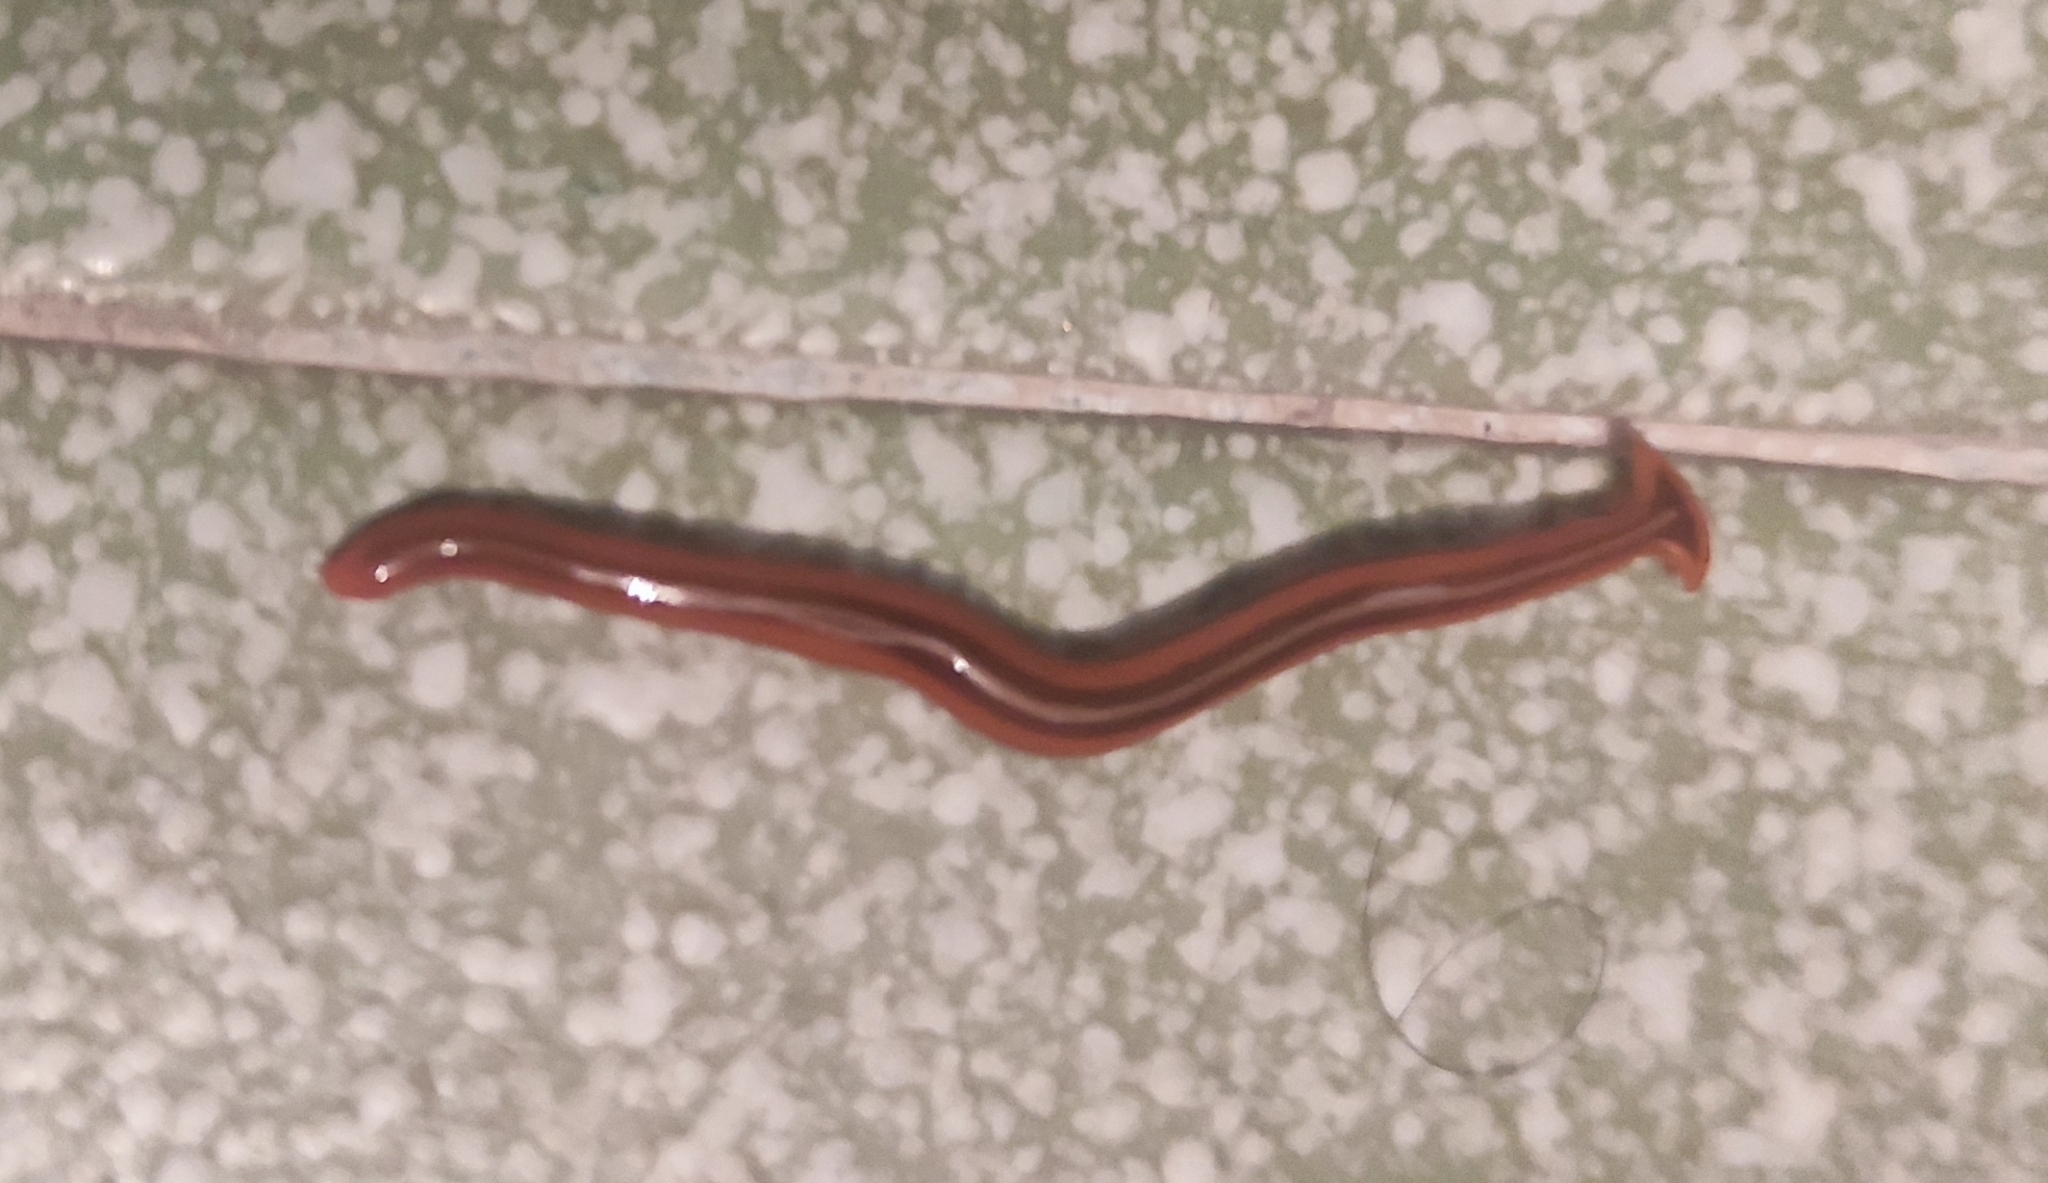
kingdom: Animalia
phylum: Platyhelminthes
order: Tricladida
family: Geoplanidae
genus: Humbertium
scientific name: Humbertium proserpina
